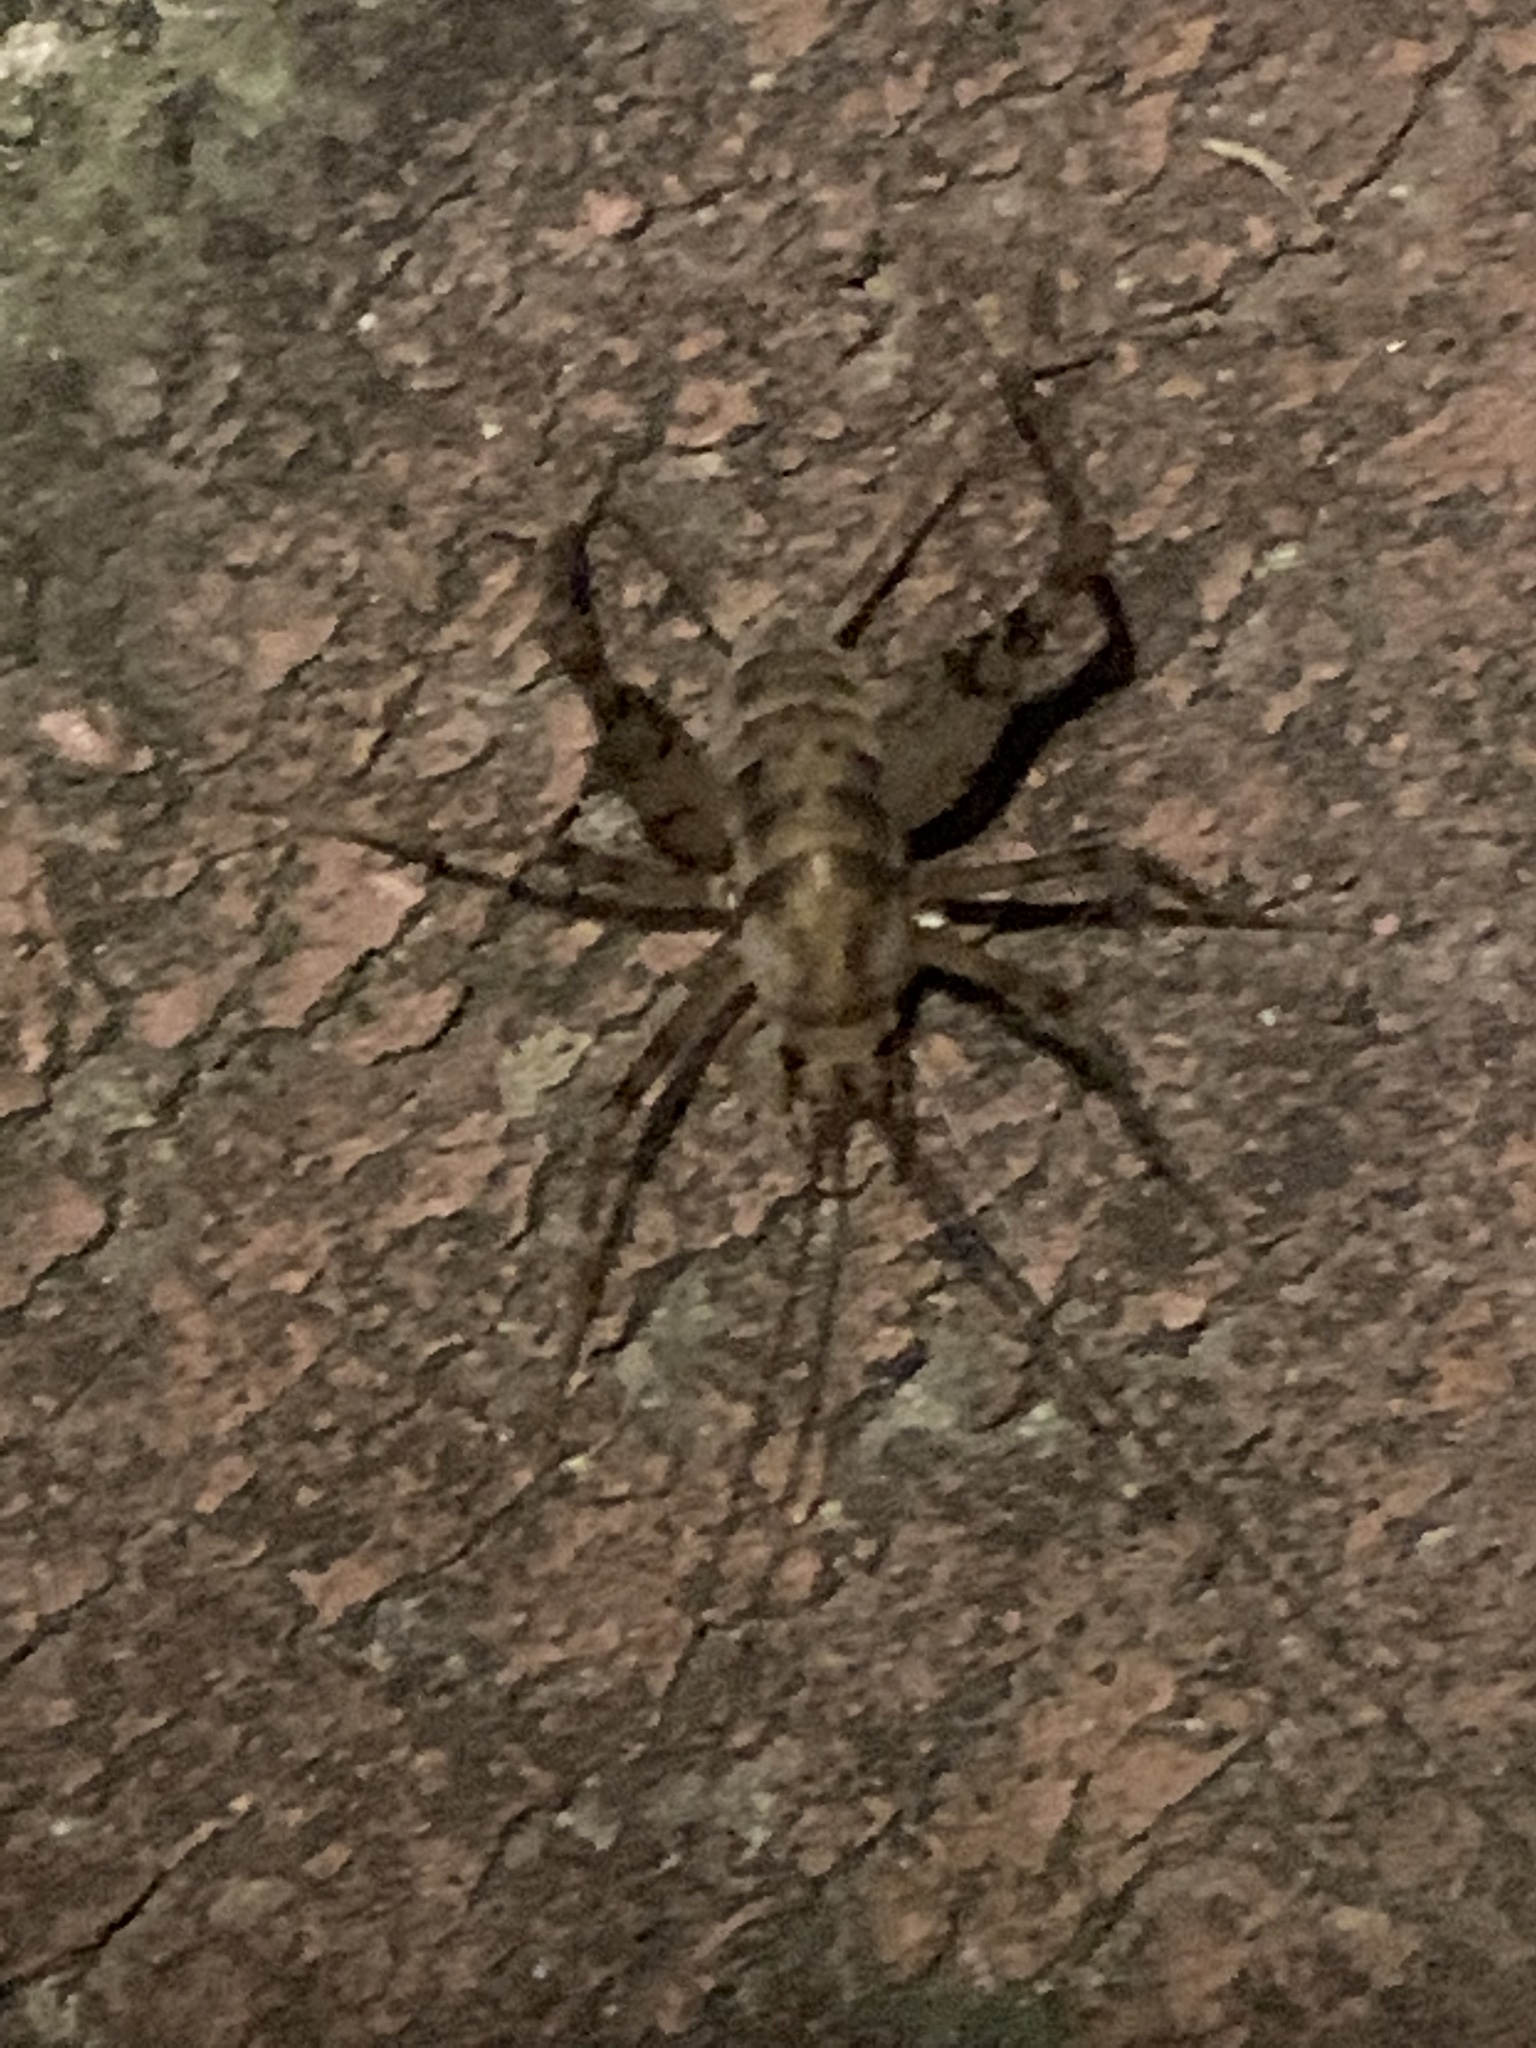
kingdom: Animalia
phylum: Arthropoda
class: Insecta
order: Orthoptera
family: Rhaphidophoridae
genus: Tachycines
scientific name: Tachycines asynamorus
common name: Greenhouse camel cricket
